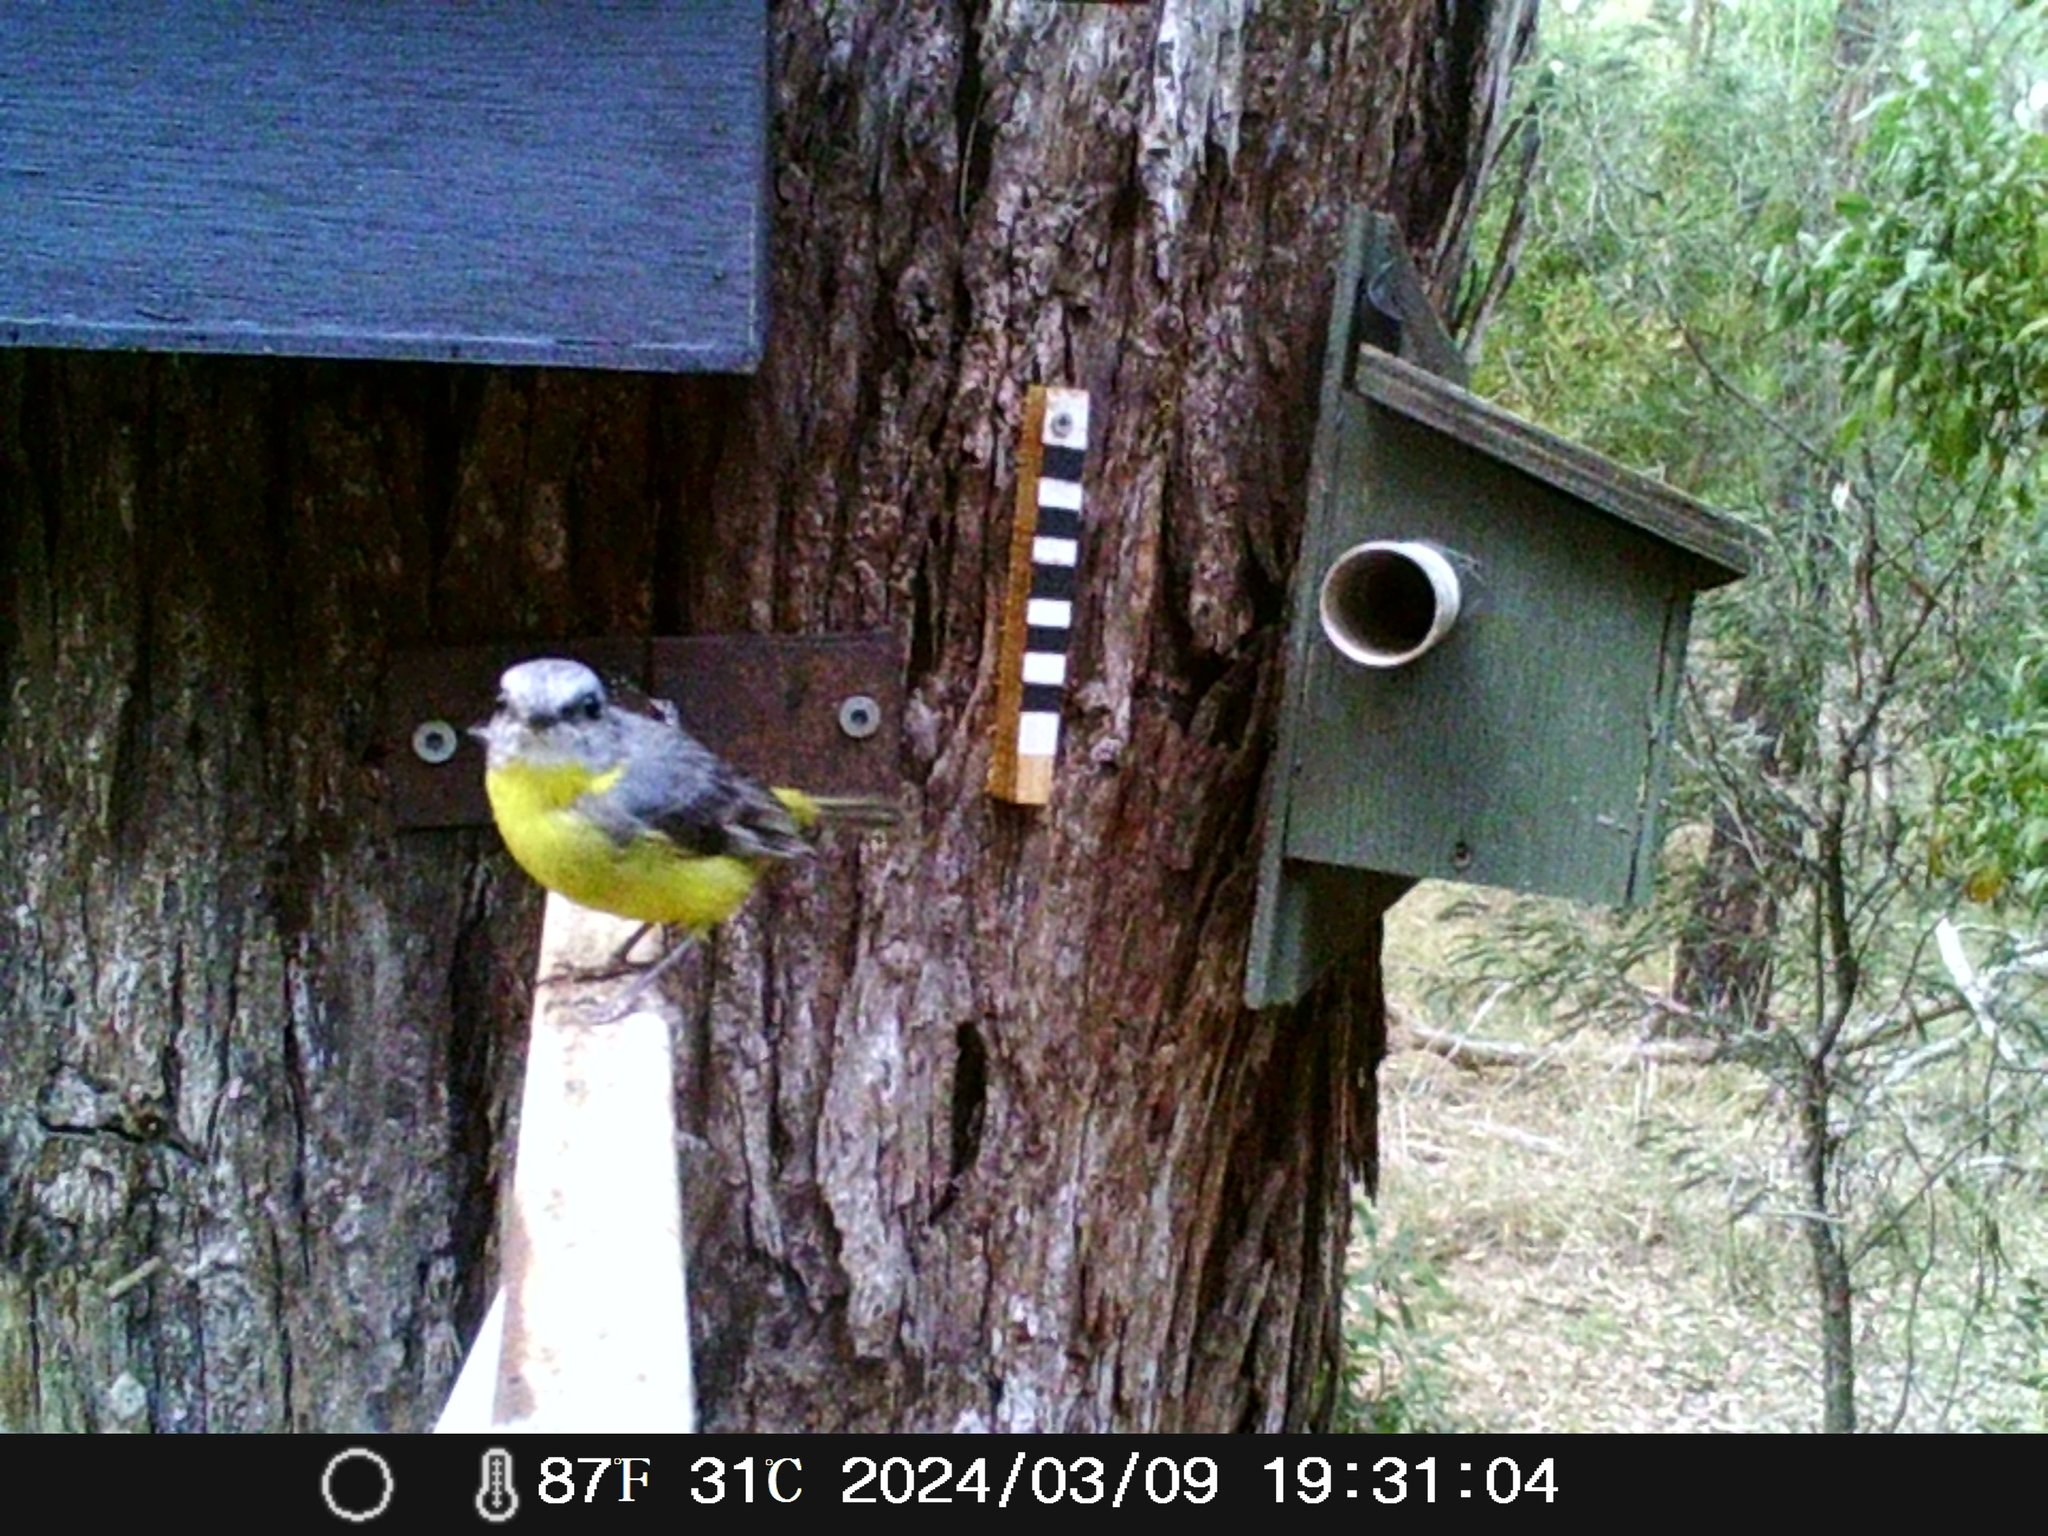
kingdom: Animalia
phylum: Chordata
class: Aves
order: Passeriformes
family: Petroicidae
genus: Eopsaltria
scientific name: Eopsaltria australis
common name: Eastern yellow robin
